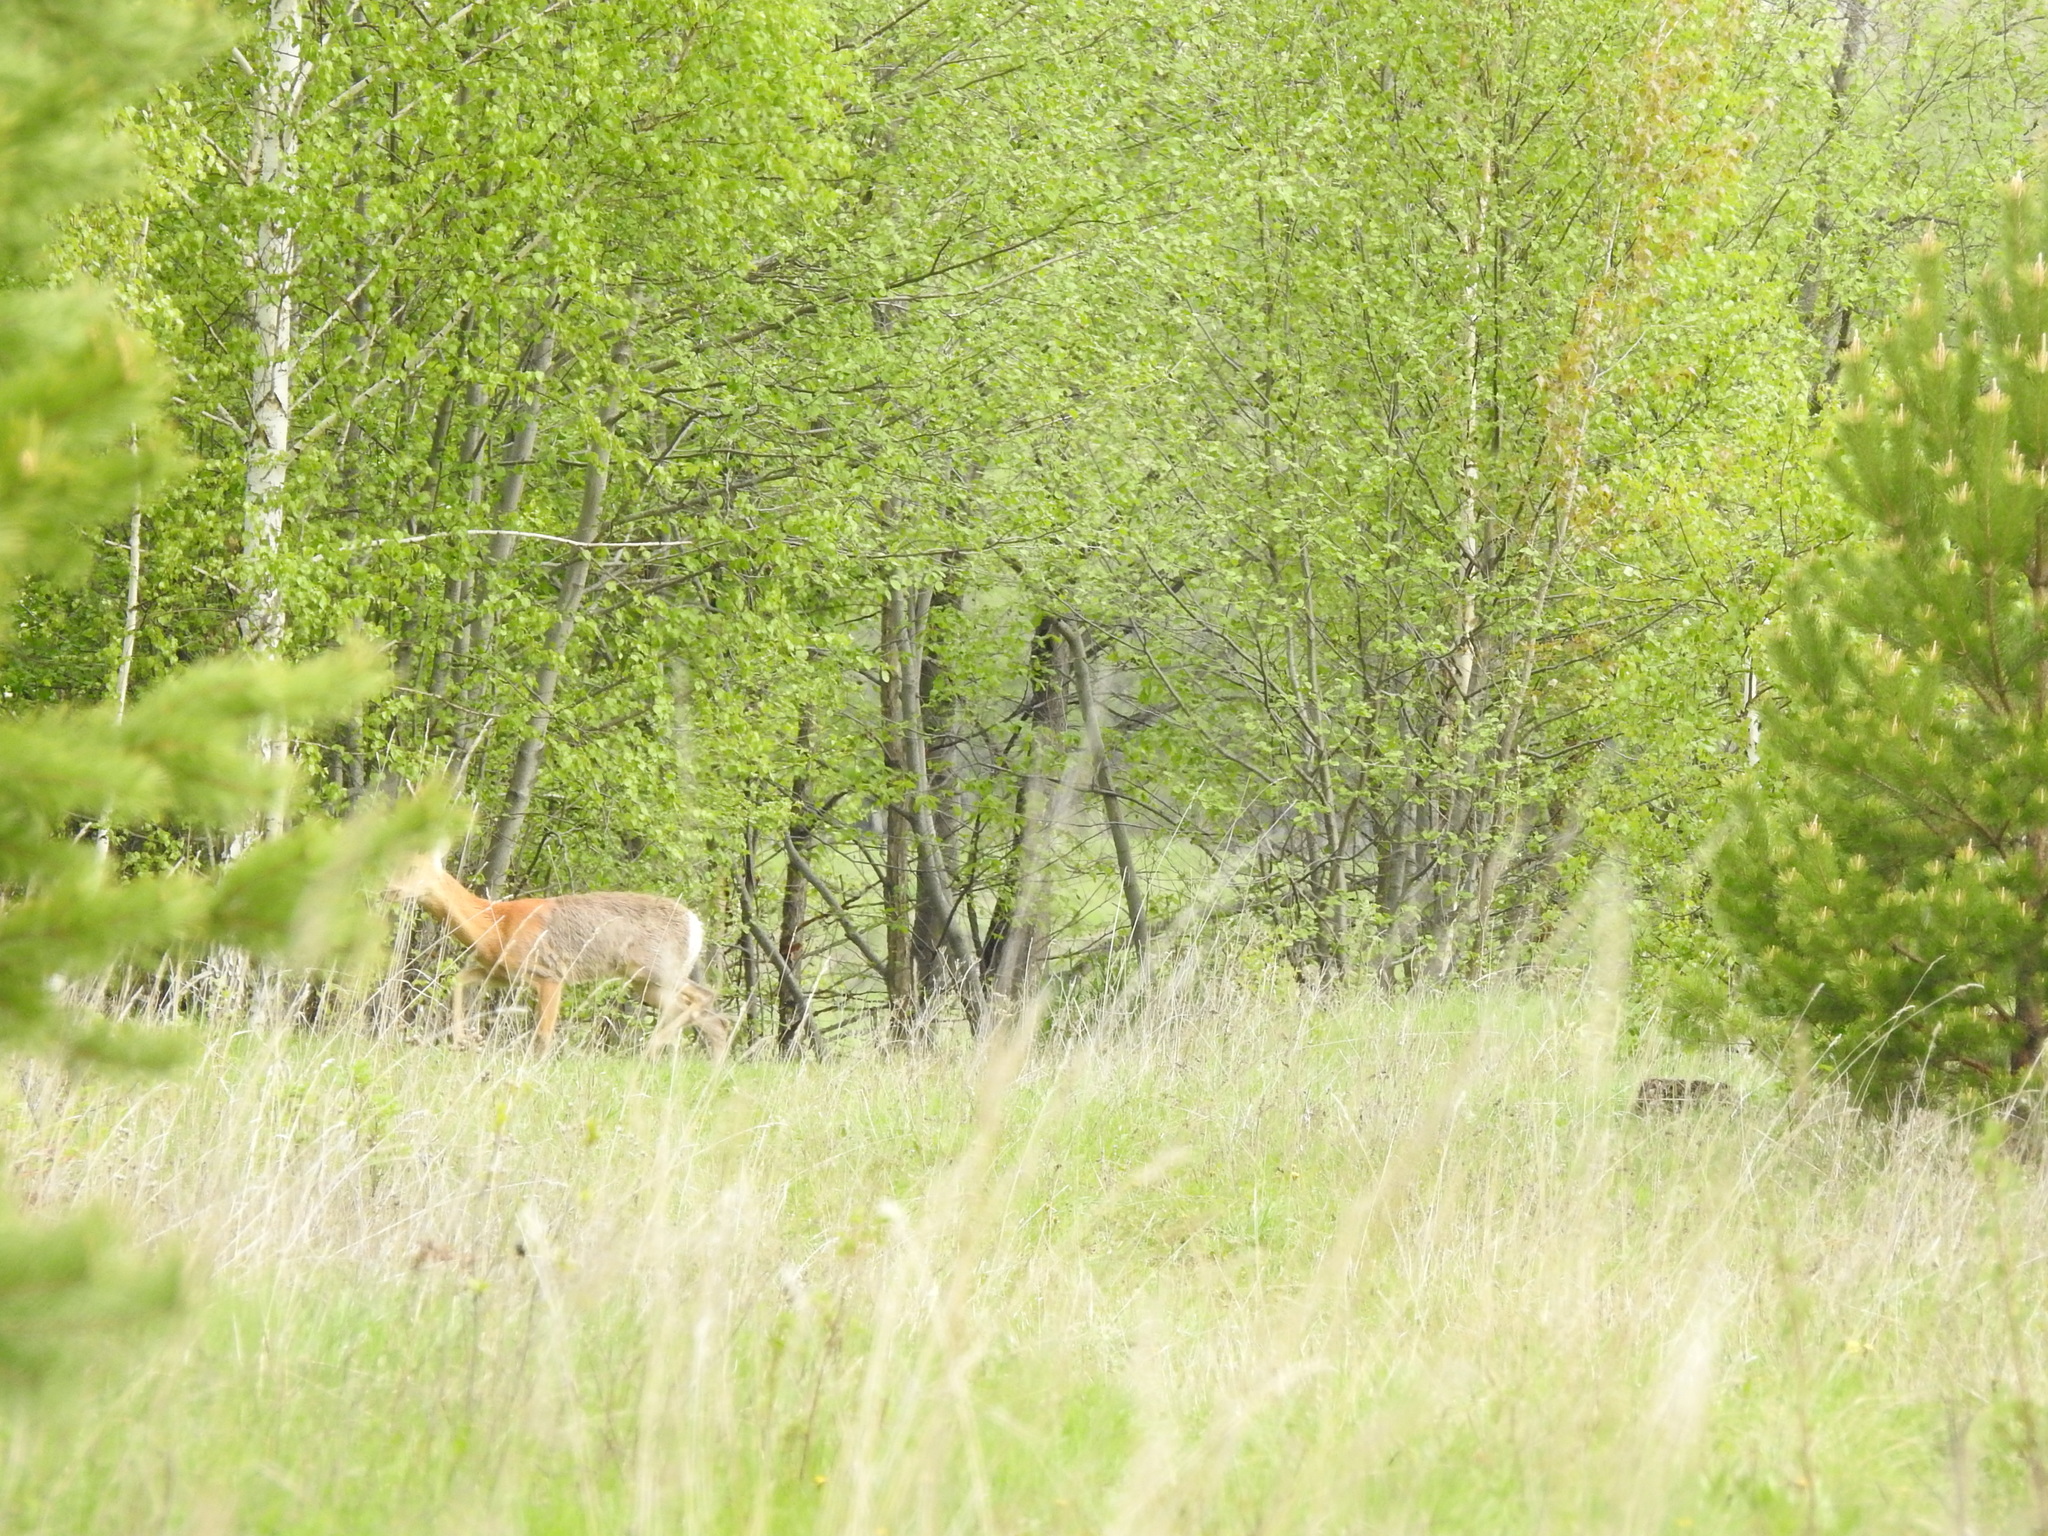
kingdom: Animalia
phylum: Chordata
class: Mammalia
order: Artiodactyla
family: Cervidae
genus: Capreolus
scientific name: Capreolus pygargus
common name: Siberian roe
